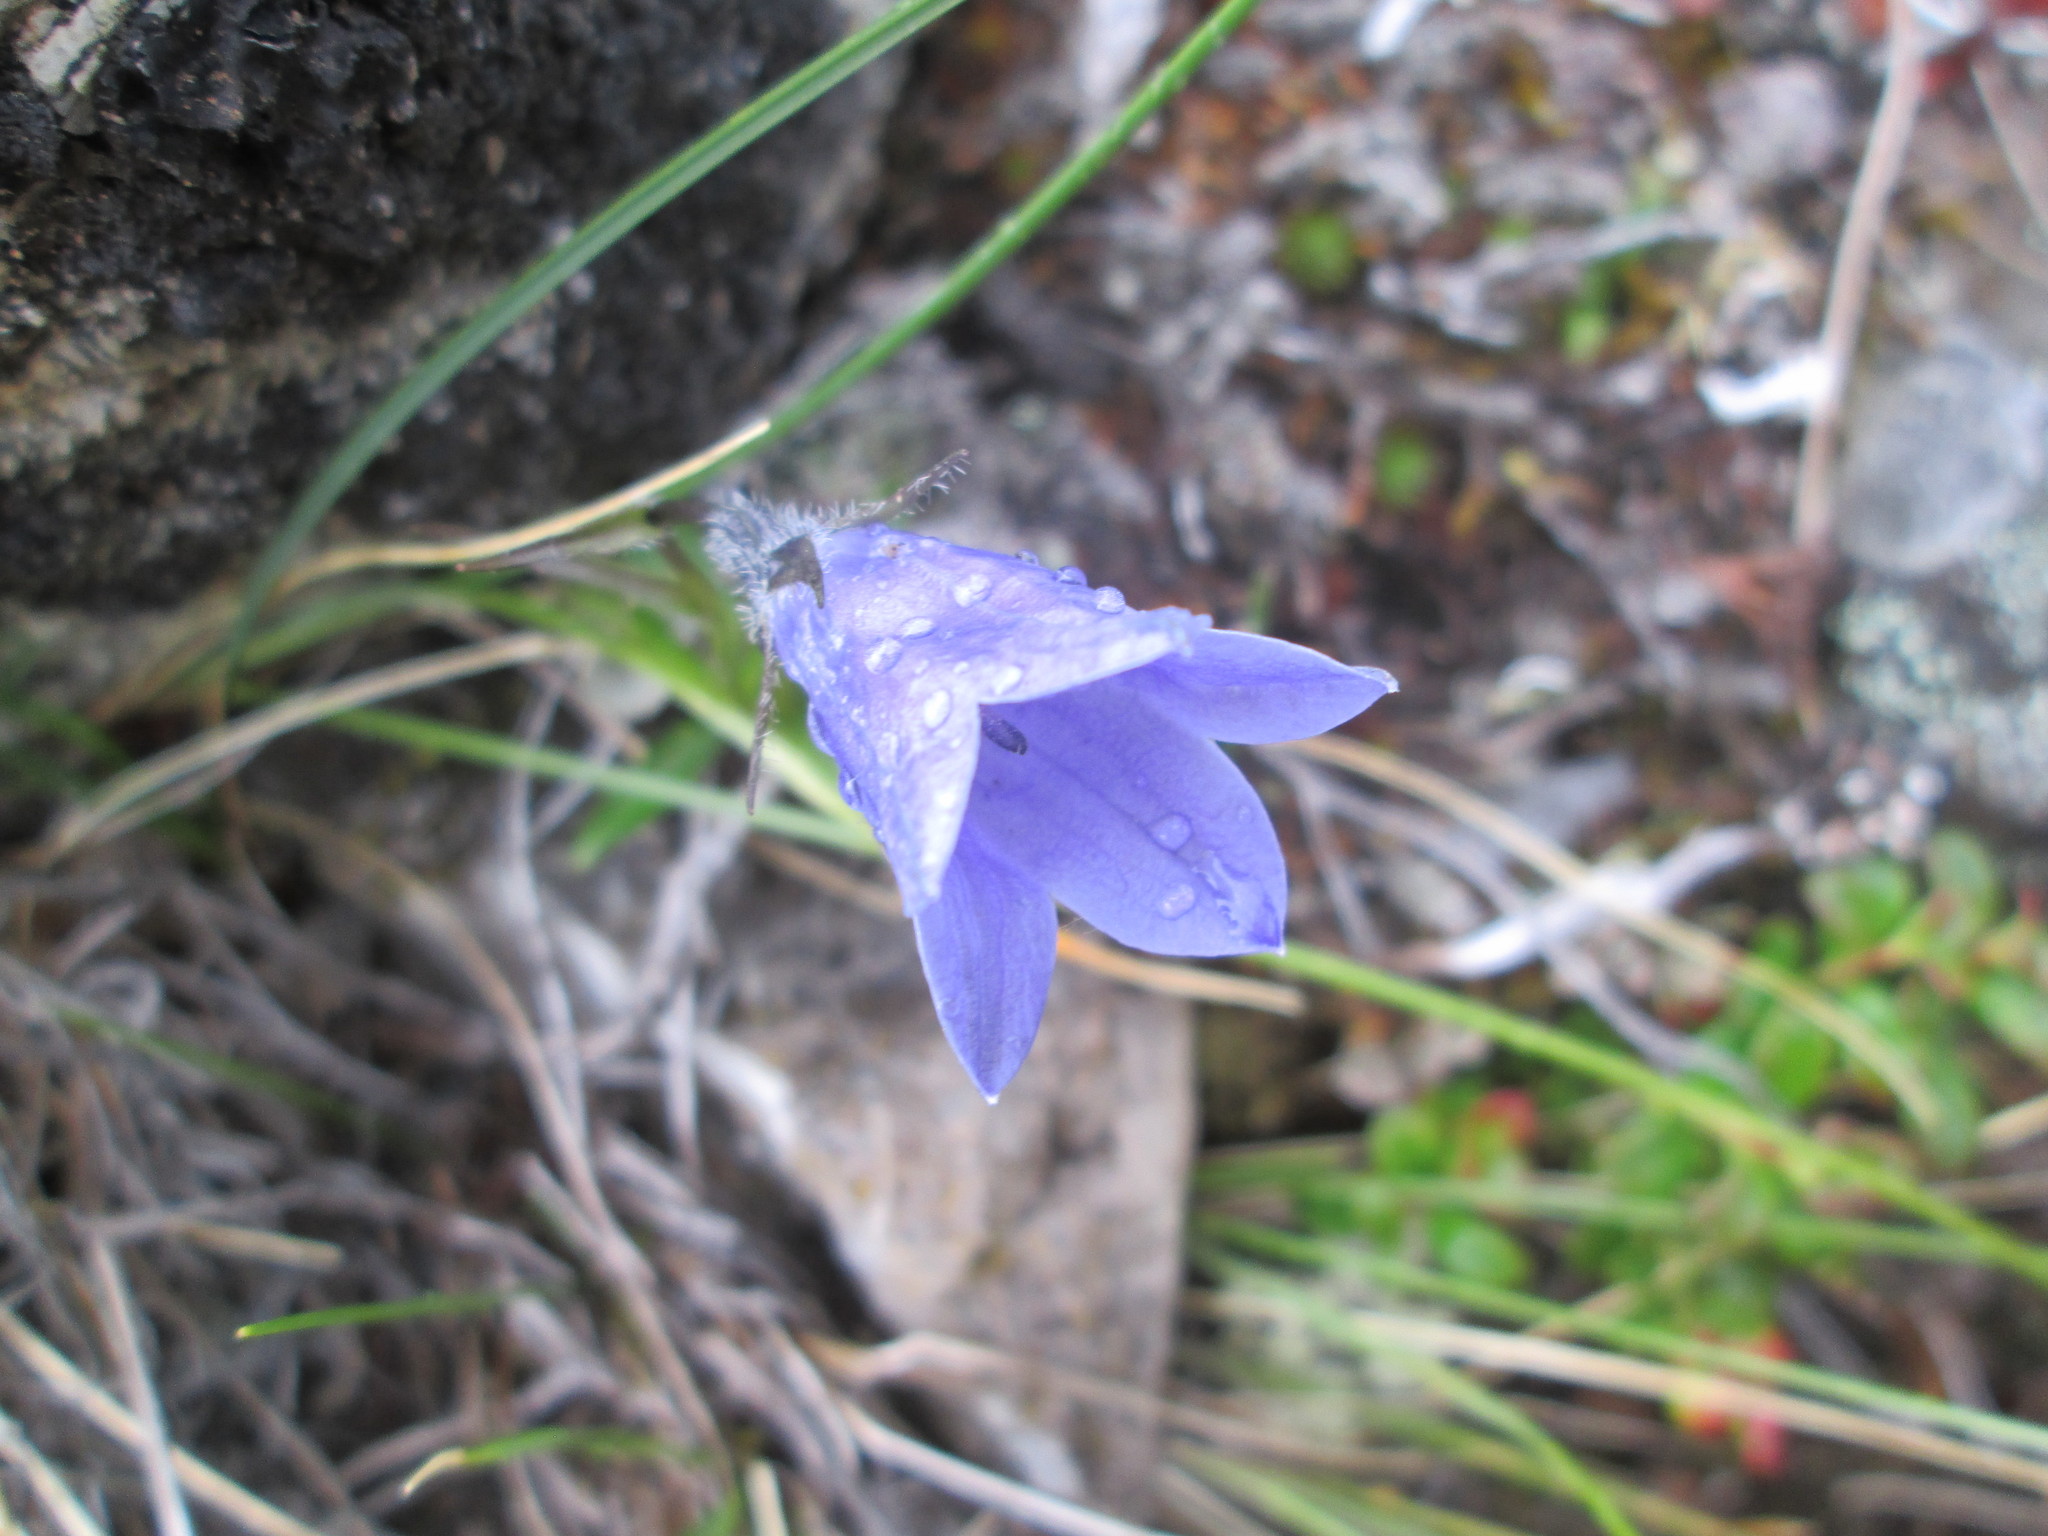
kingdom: Plantae
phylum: Tracheophyta
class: Magnoliopsida
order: Asterales
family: Campanulaceae
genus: Campanula
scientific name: Campanula lasiocarpa
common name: Mountain harebell
